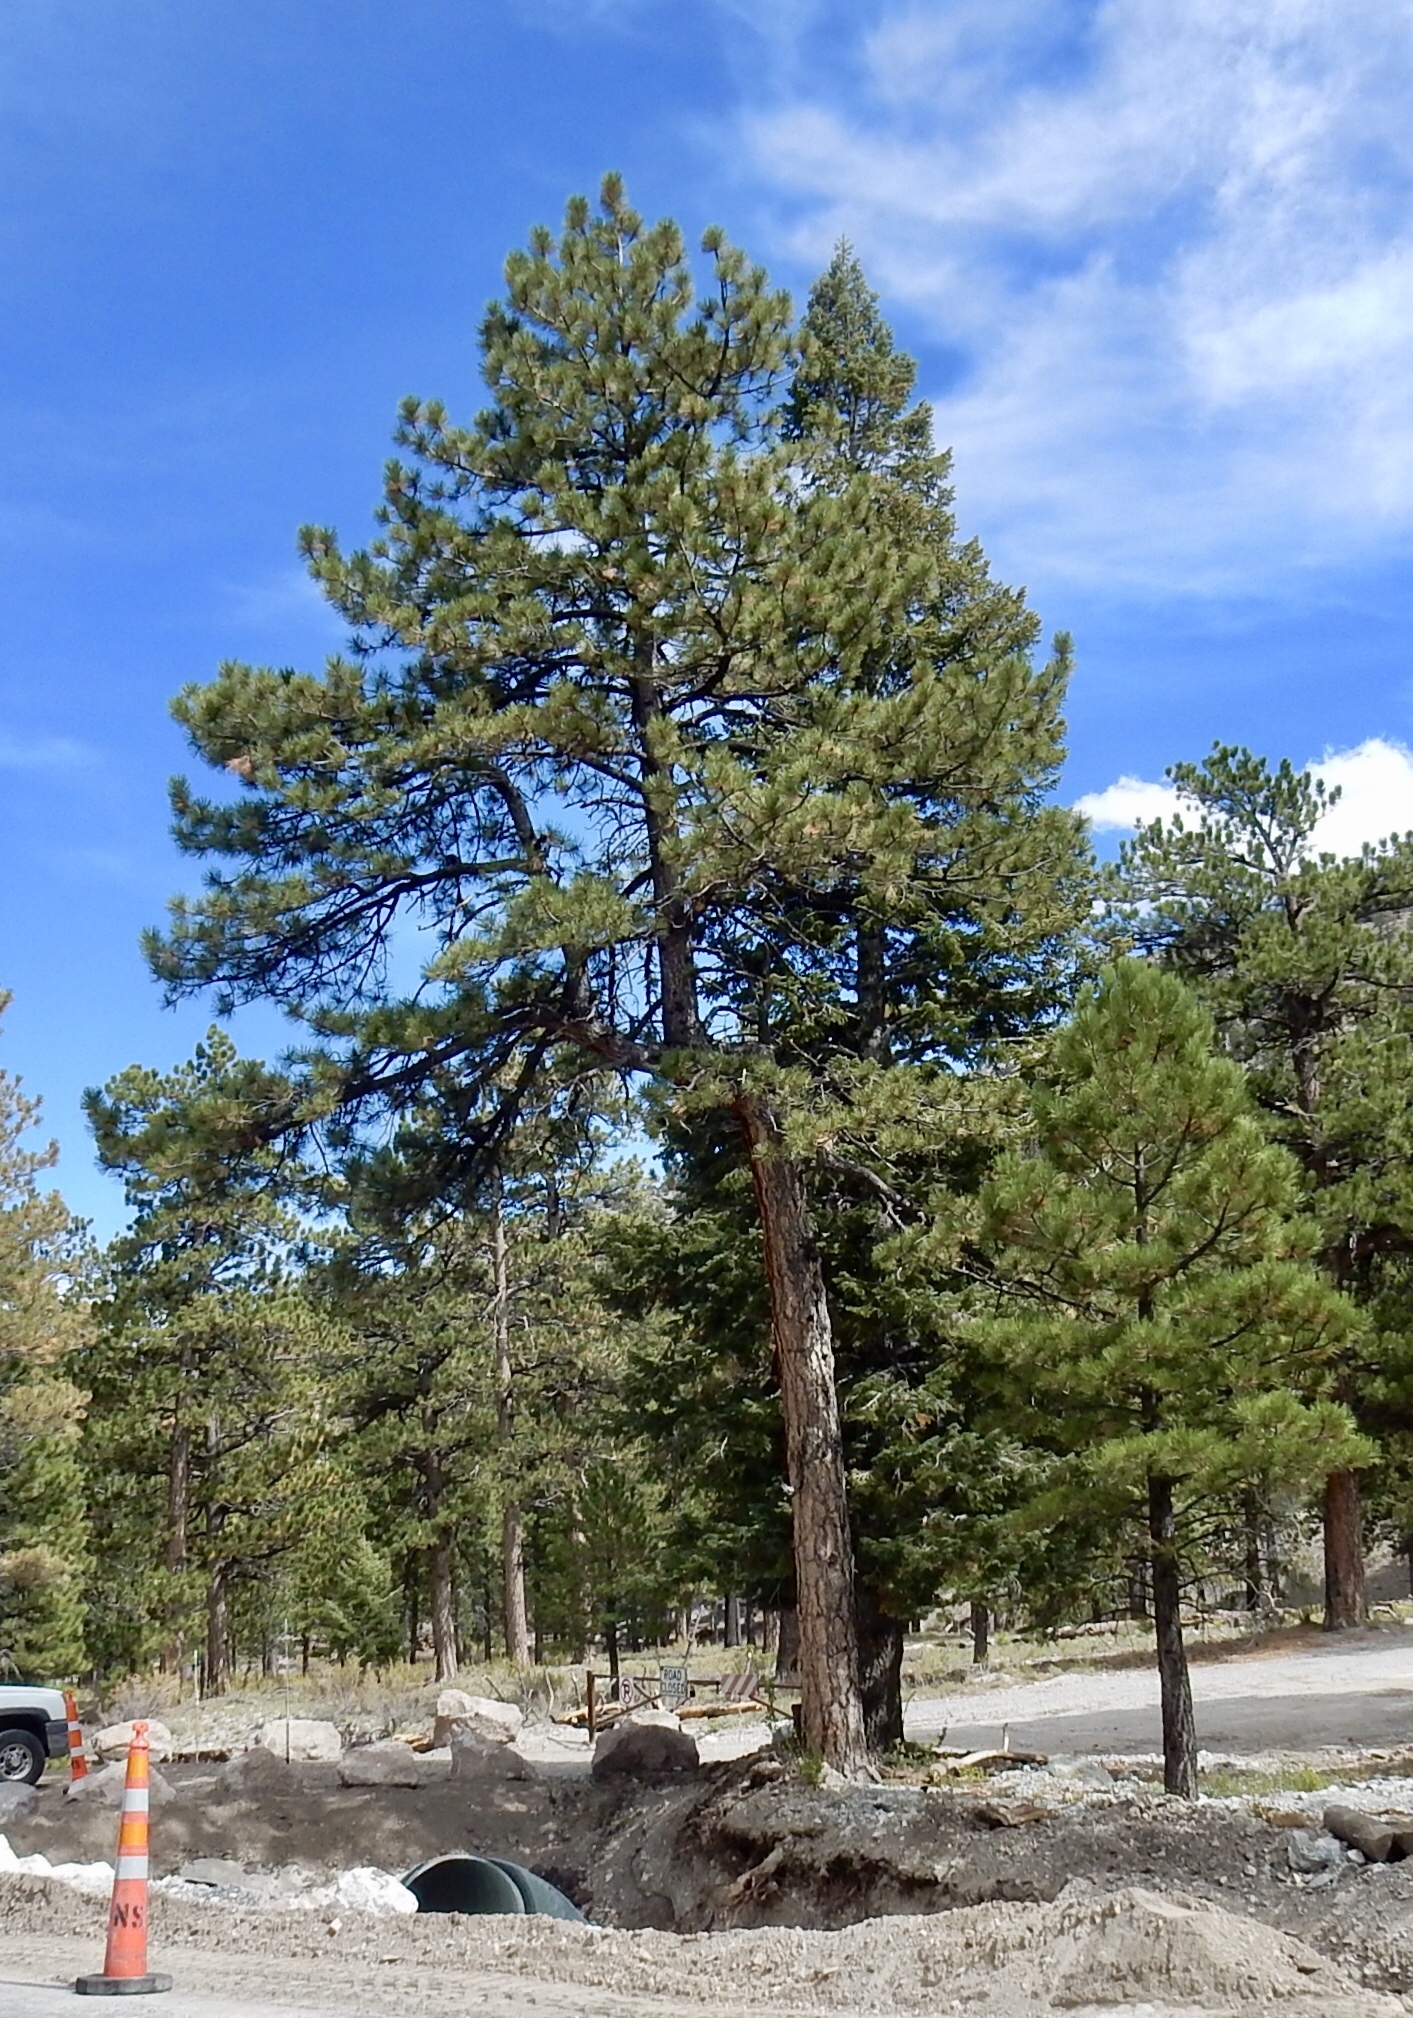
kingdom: Plantae
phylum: Tracheophyta
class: Pinopsida
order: Pinales
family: Pinaceae
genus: Pinus
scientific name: Pinus ponderosa
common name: Western yellow-pine
